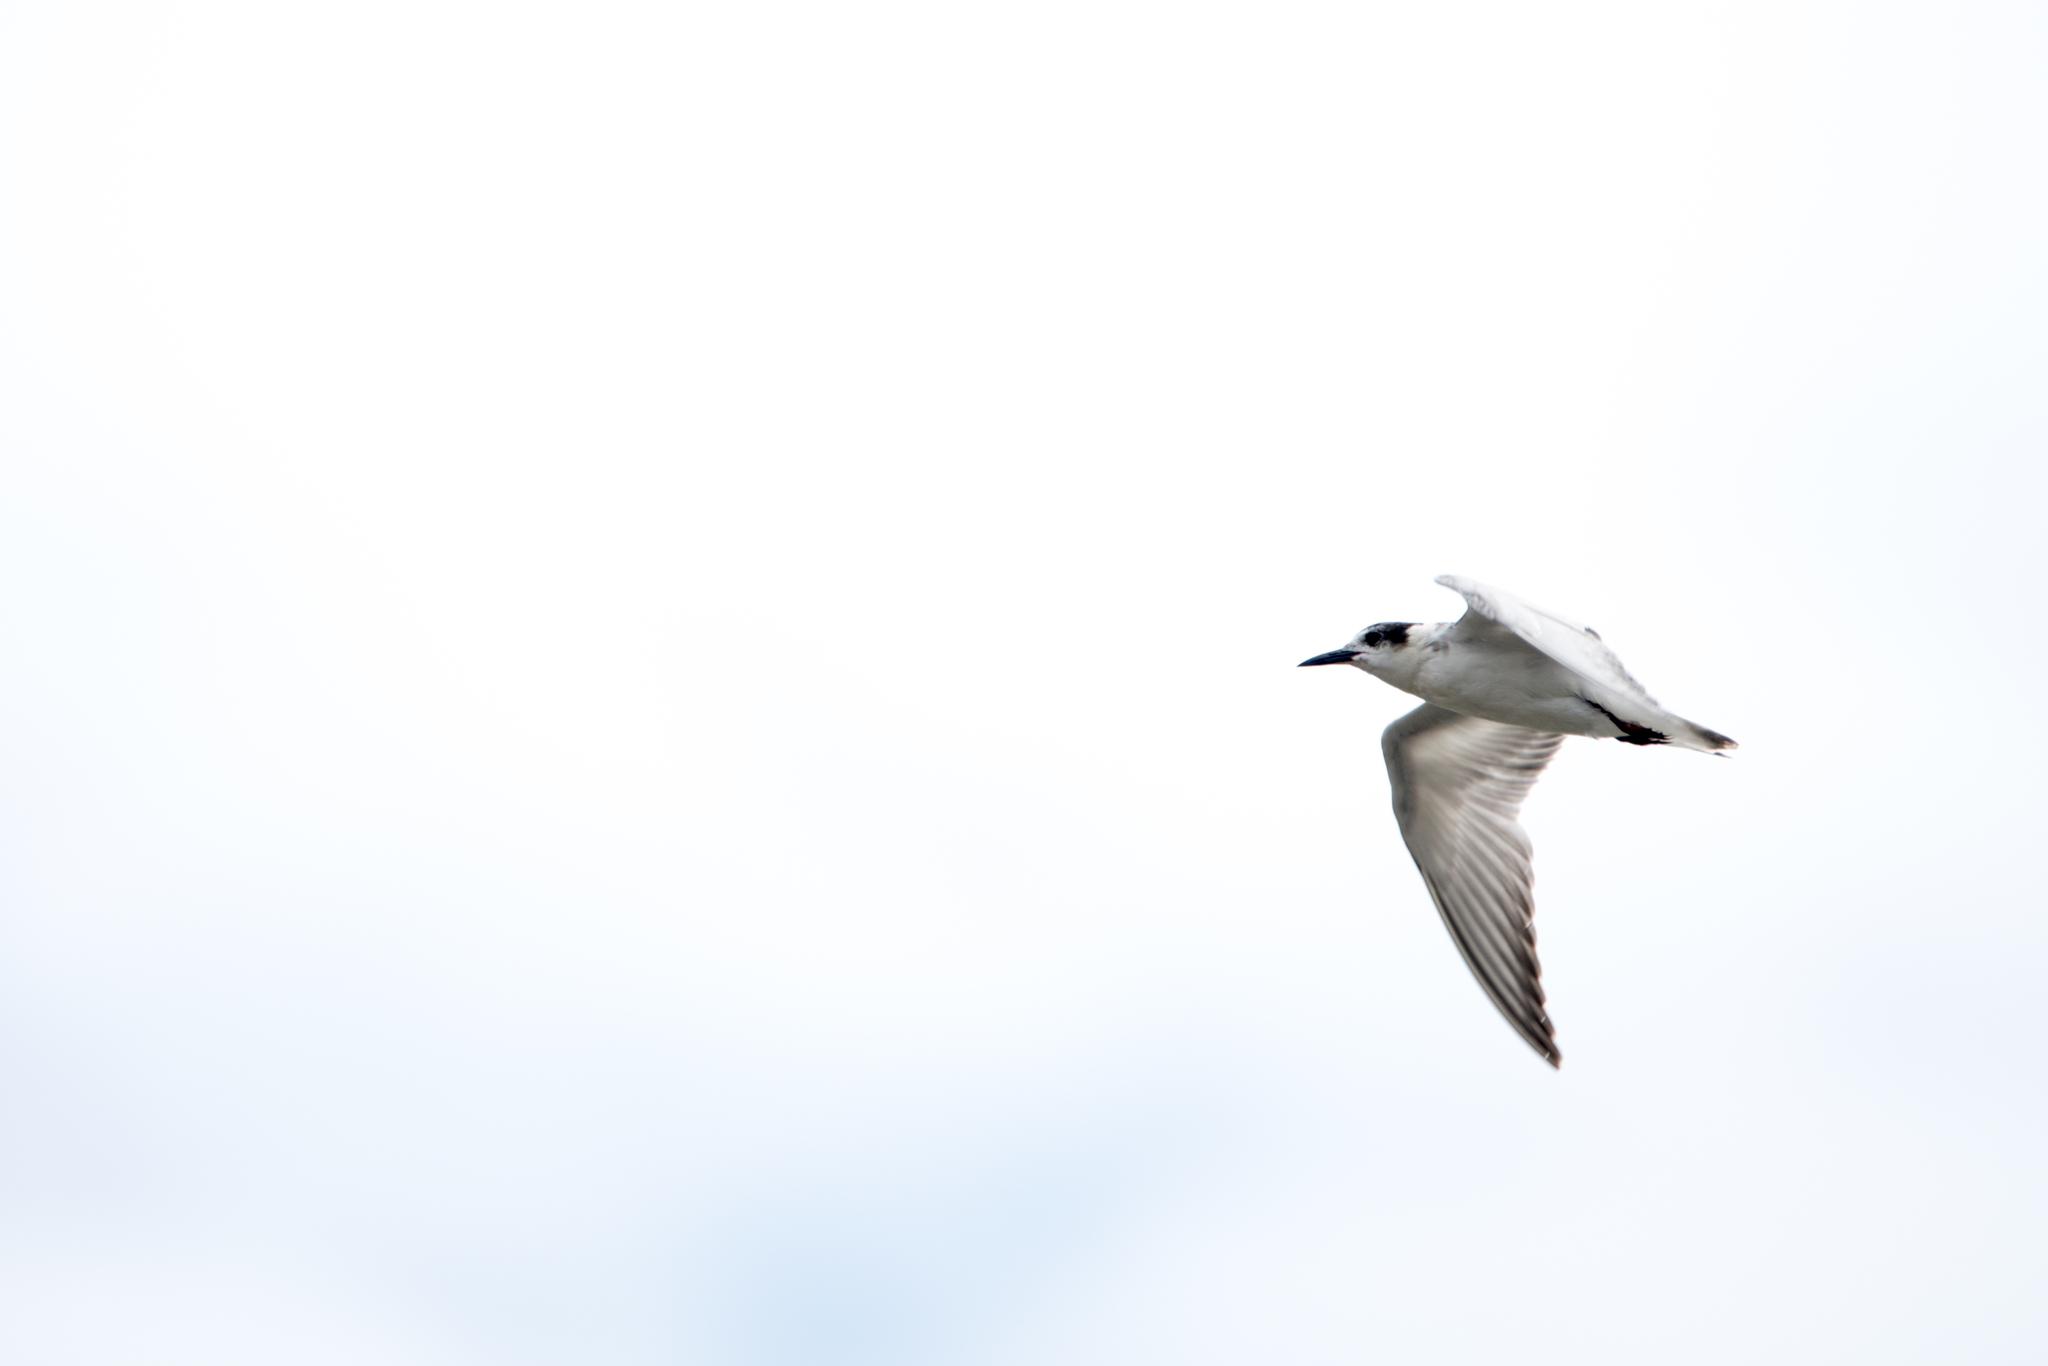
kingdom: Animalia
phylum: Chordata
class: Aves
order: Charadriiformes
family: Laridae
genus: Chlidonias
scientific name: Chlidonias leucopterus
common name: White-winged tern
